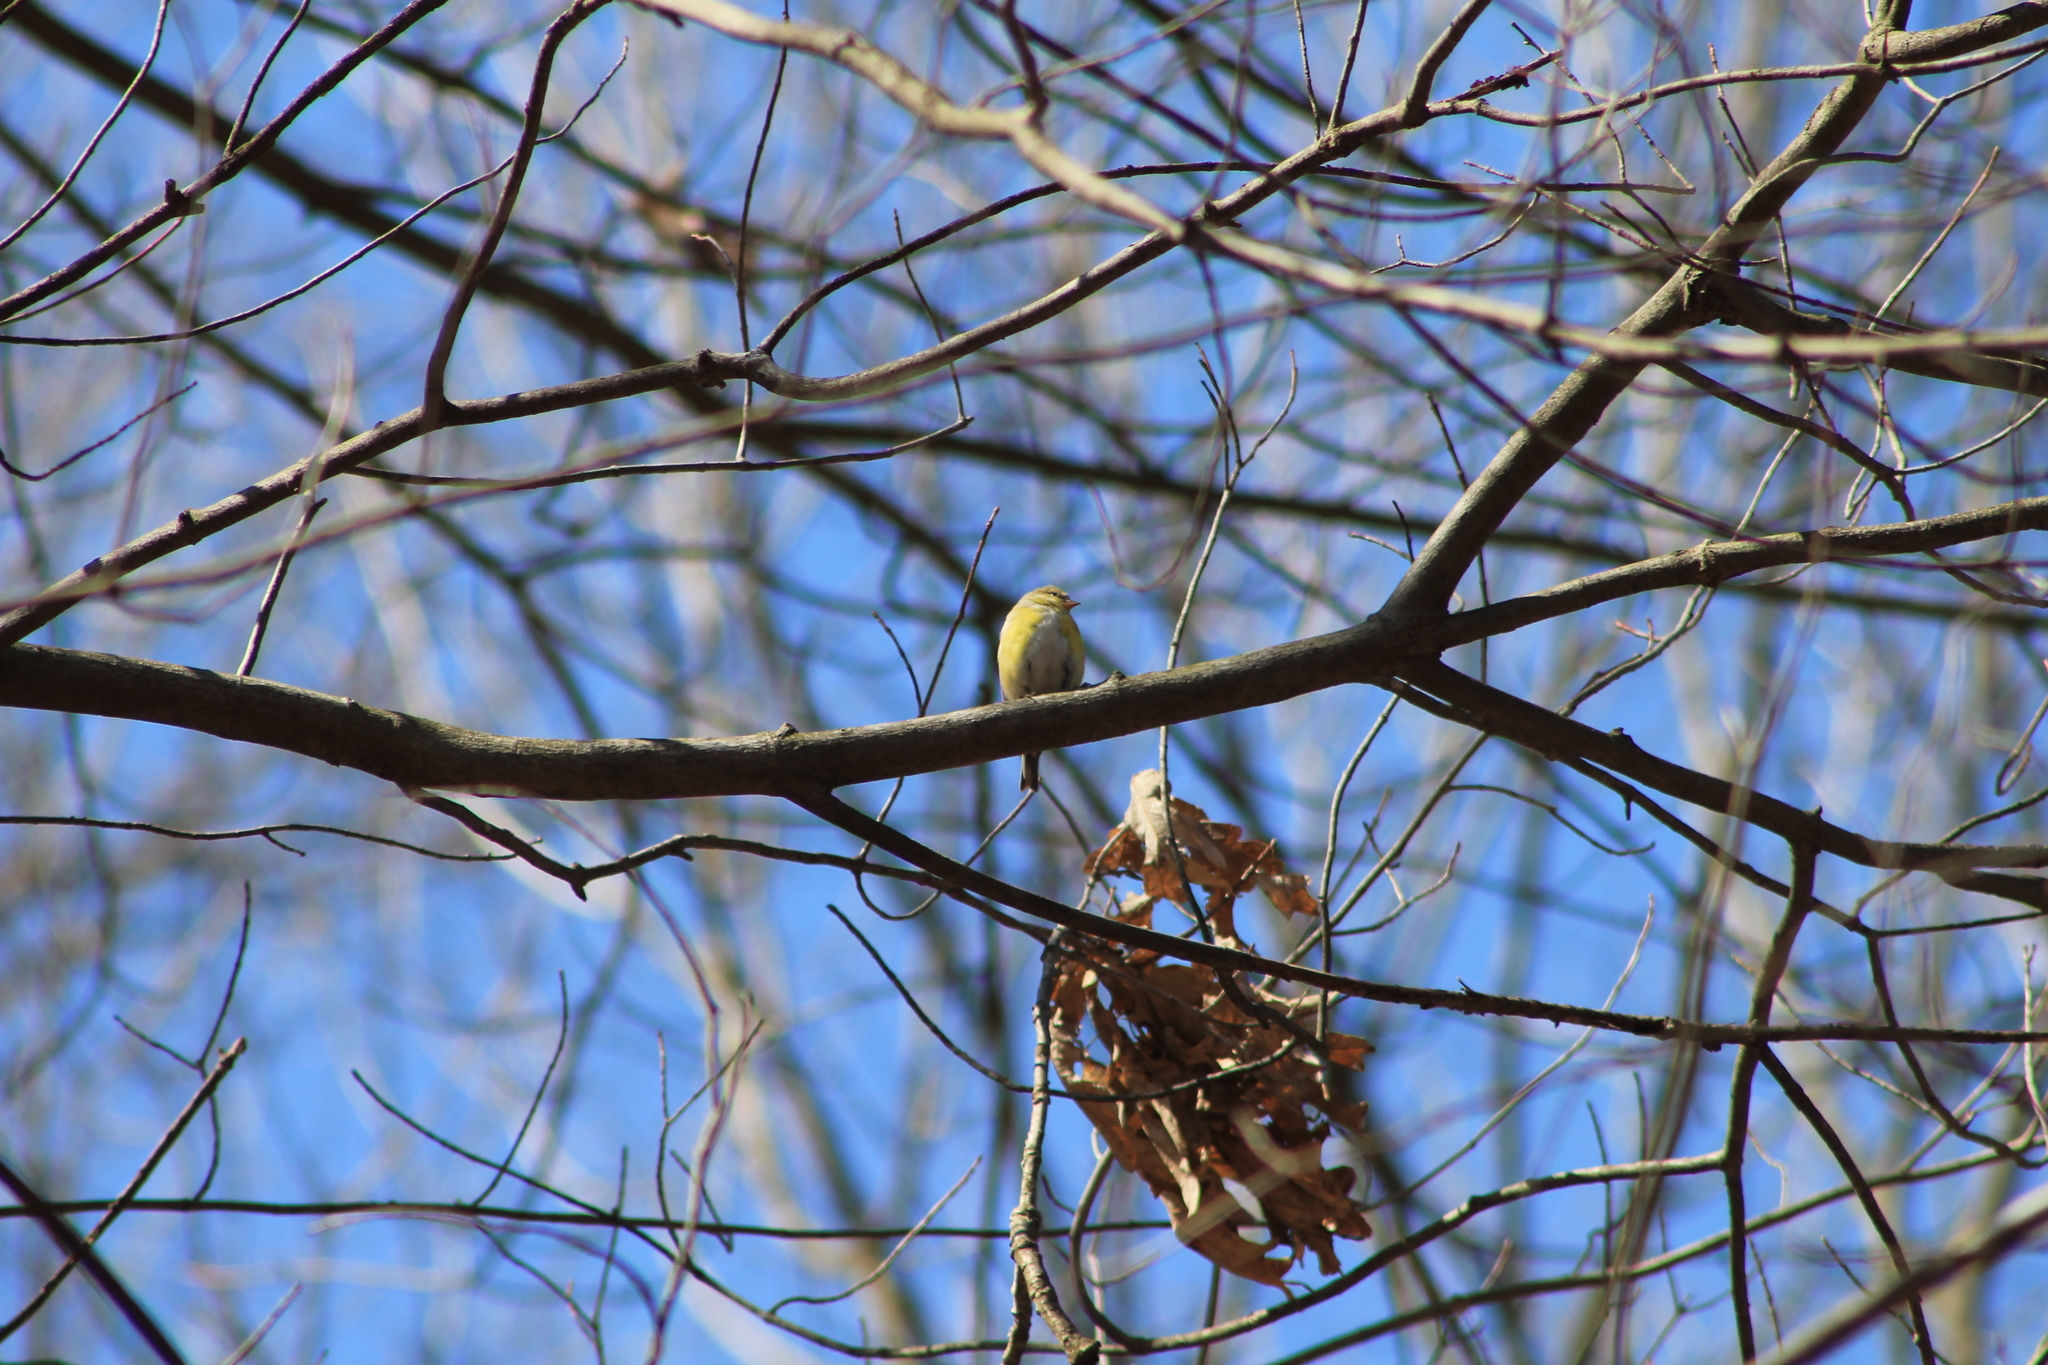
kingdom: Animalia
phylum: Chordata
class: Aves
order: Passeriformes
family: Fringillidae
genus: Spinus
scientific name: Spinus tristis
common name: American goldfinch
